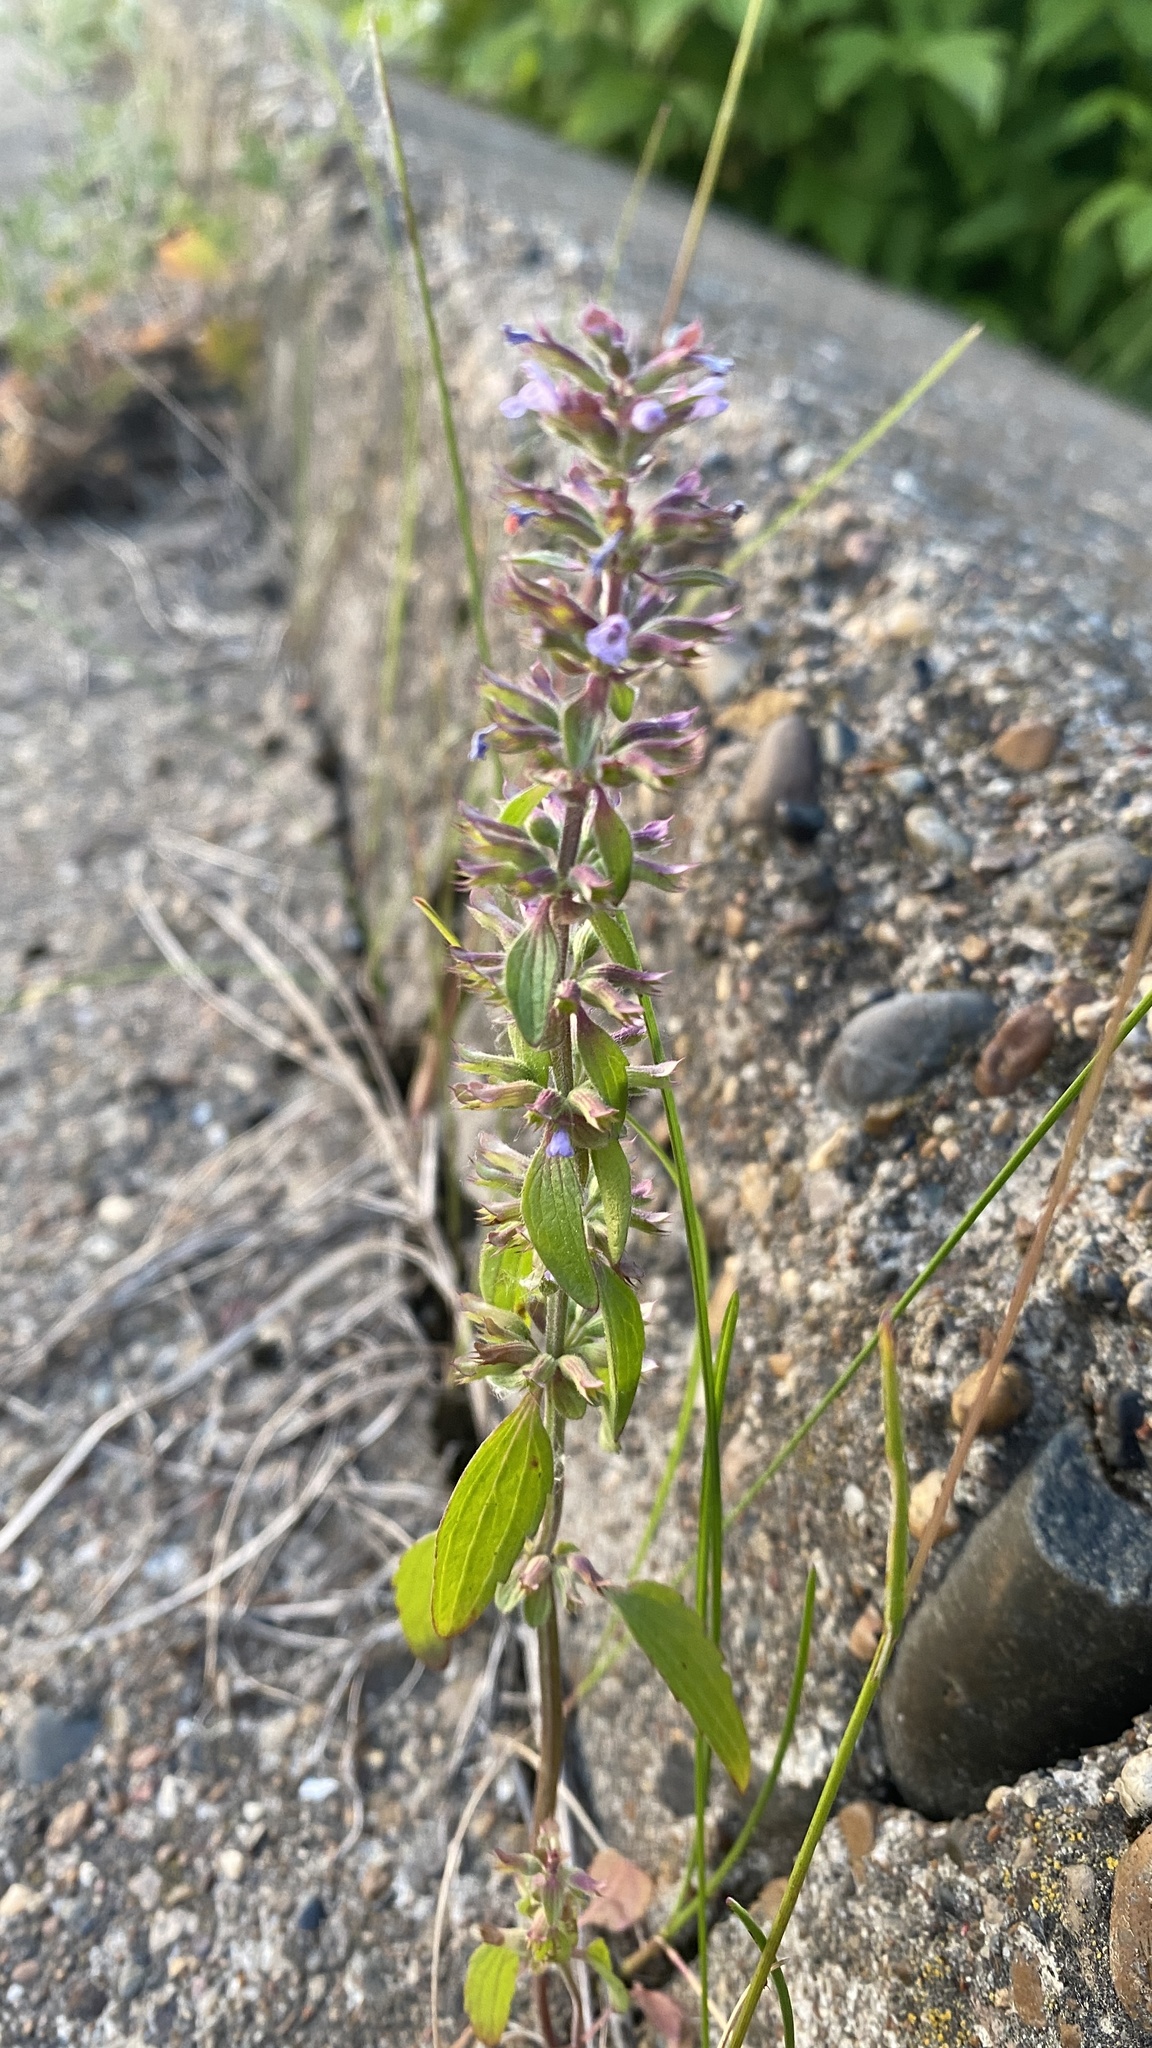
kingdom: Plantae
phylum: Tracheophyta
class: Magnoliopsida
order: Lamiales
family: Lamiaceae
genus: Dracocephalum
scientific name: Dracocephalum thymiflorum
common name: Thymeleaf dragonhead
